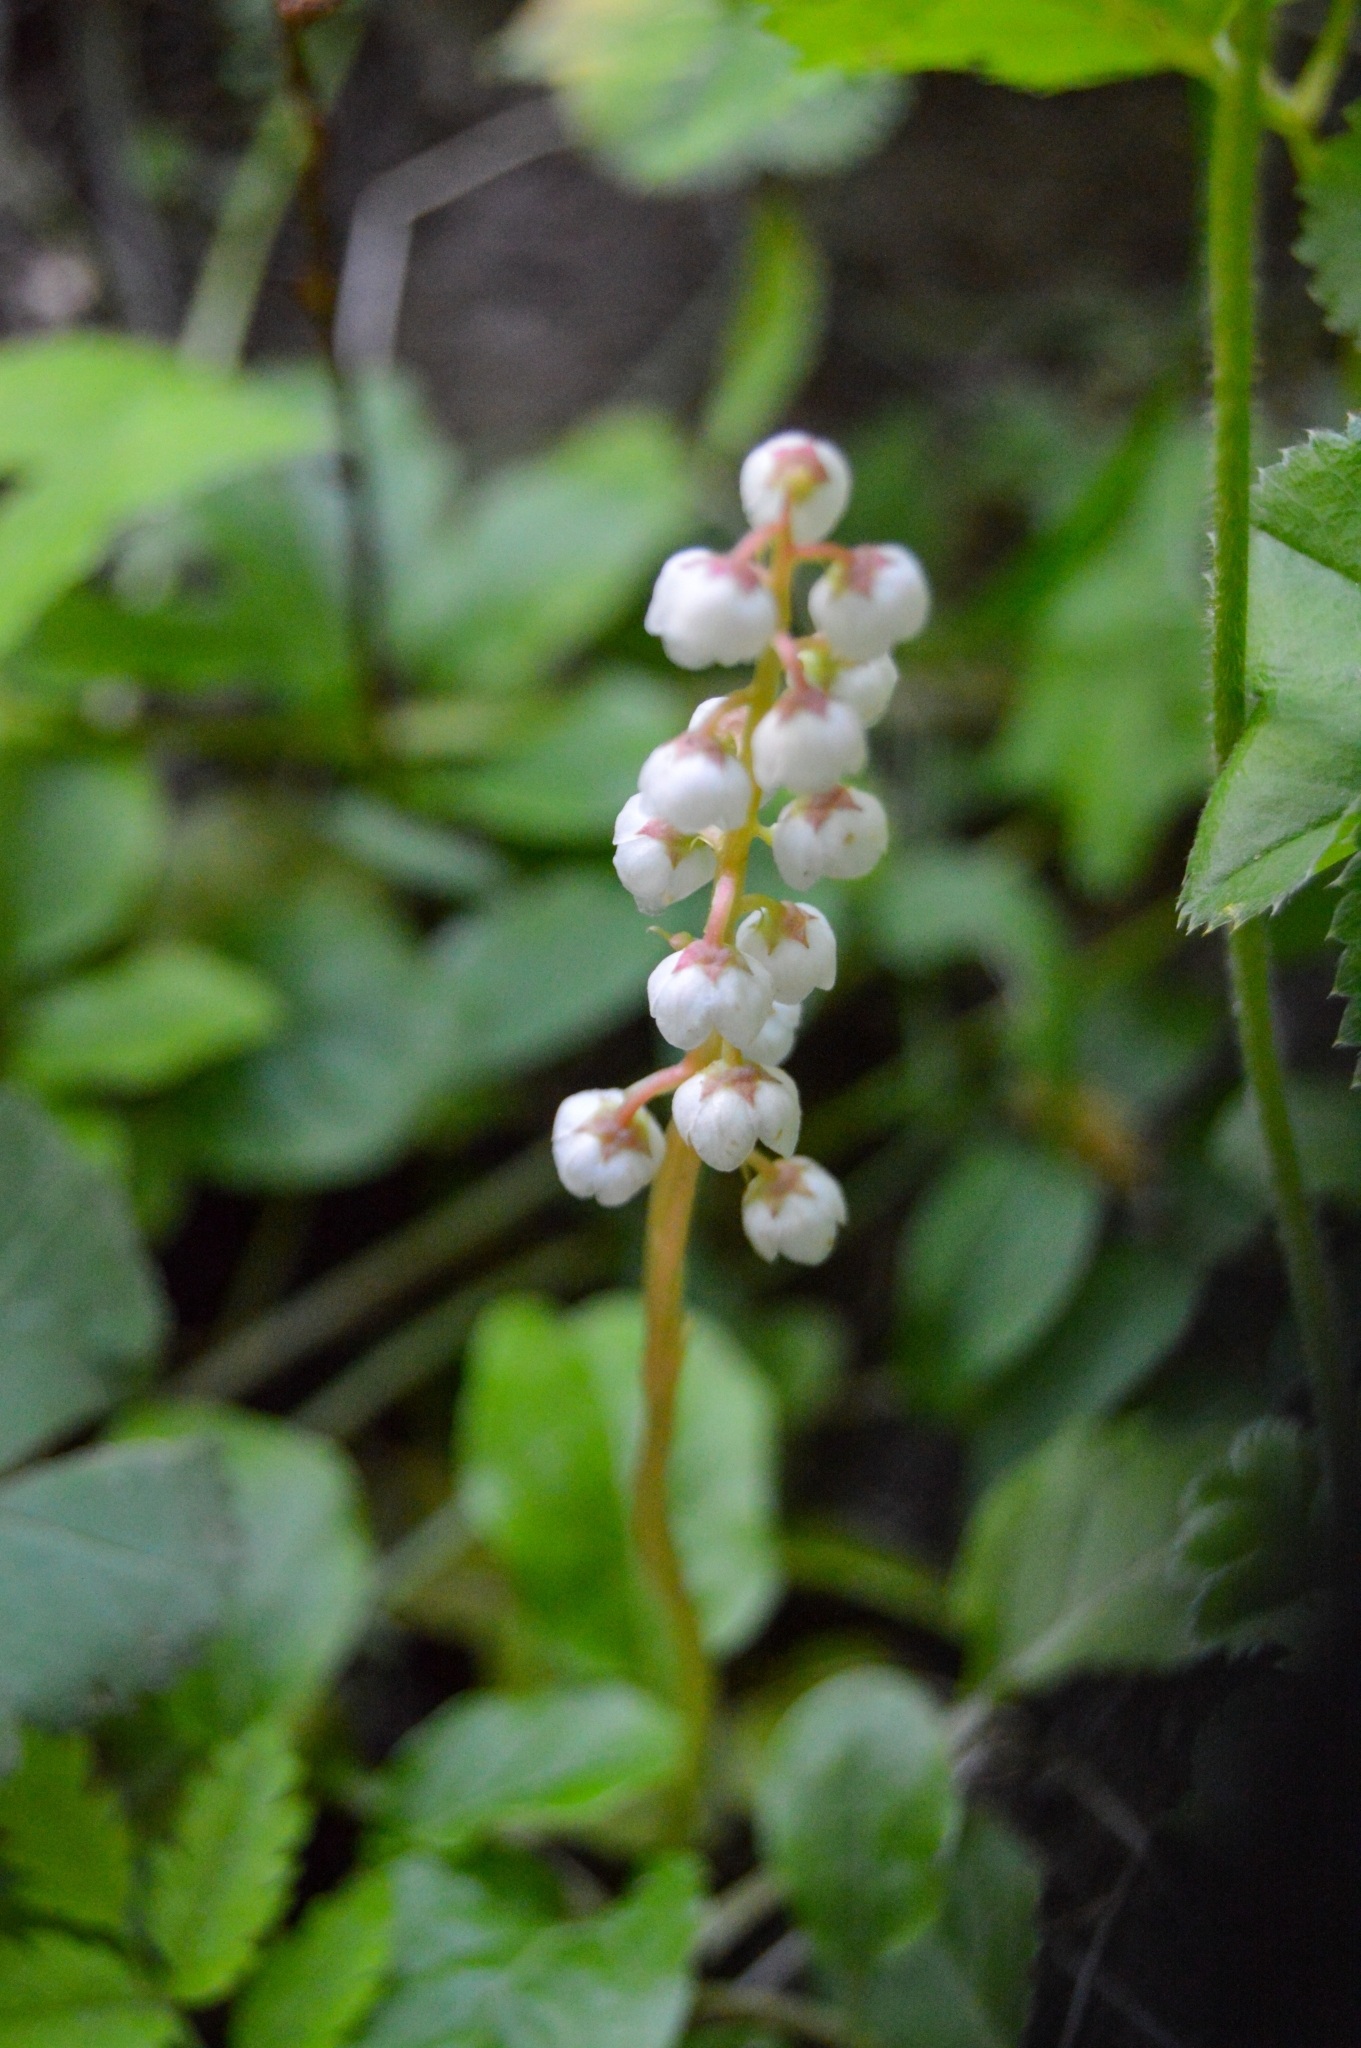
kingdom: Plantae
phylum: Tracheophyta
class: Magnoliopsida
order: Ericales
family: Ericaceae
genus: Pyrola
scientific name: Pyrola minor
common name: Common wintergreen
